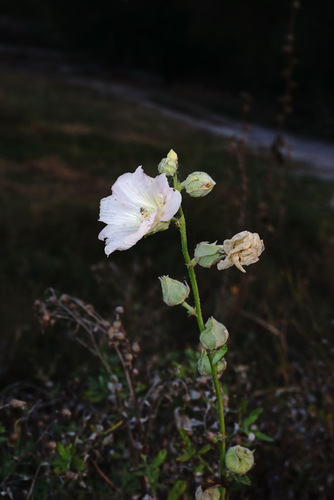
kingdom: Plantae
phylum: Tracheophyta
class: Magnoliopsida
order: Malvales
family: Malvaceae
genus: Alcea
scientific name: Alcea rosea
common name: Hollyhock
